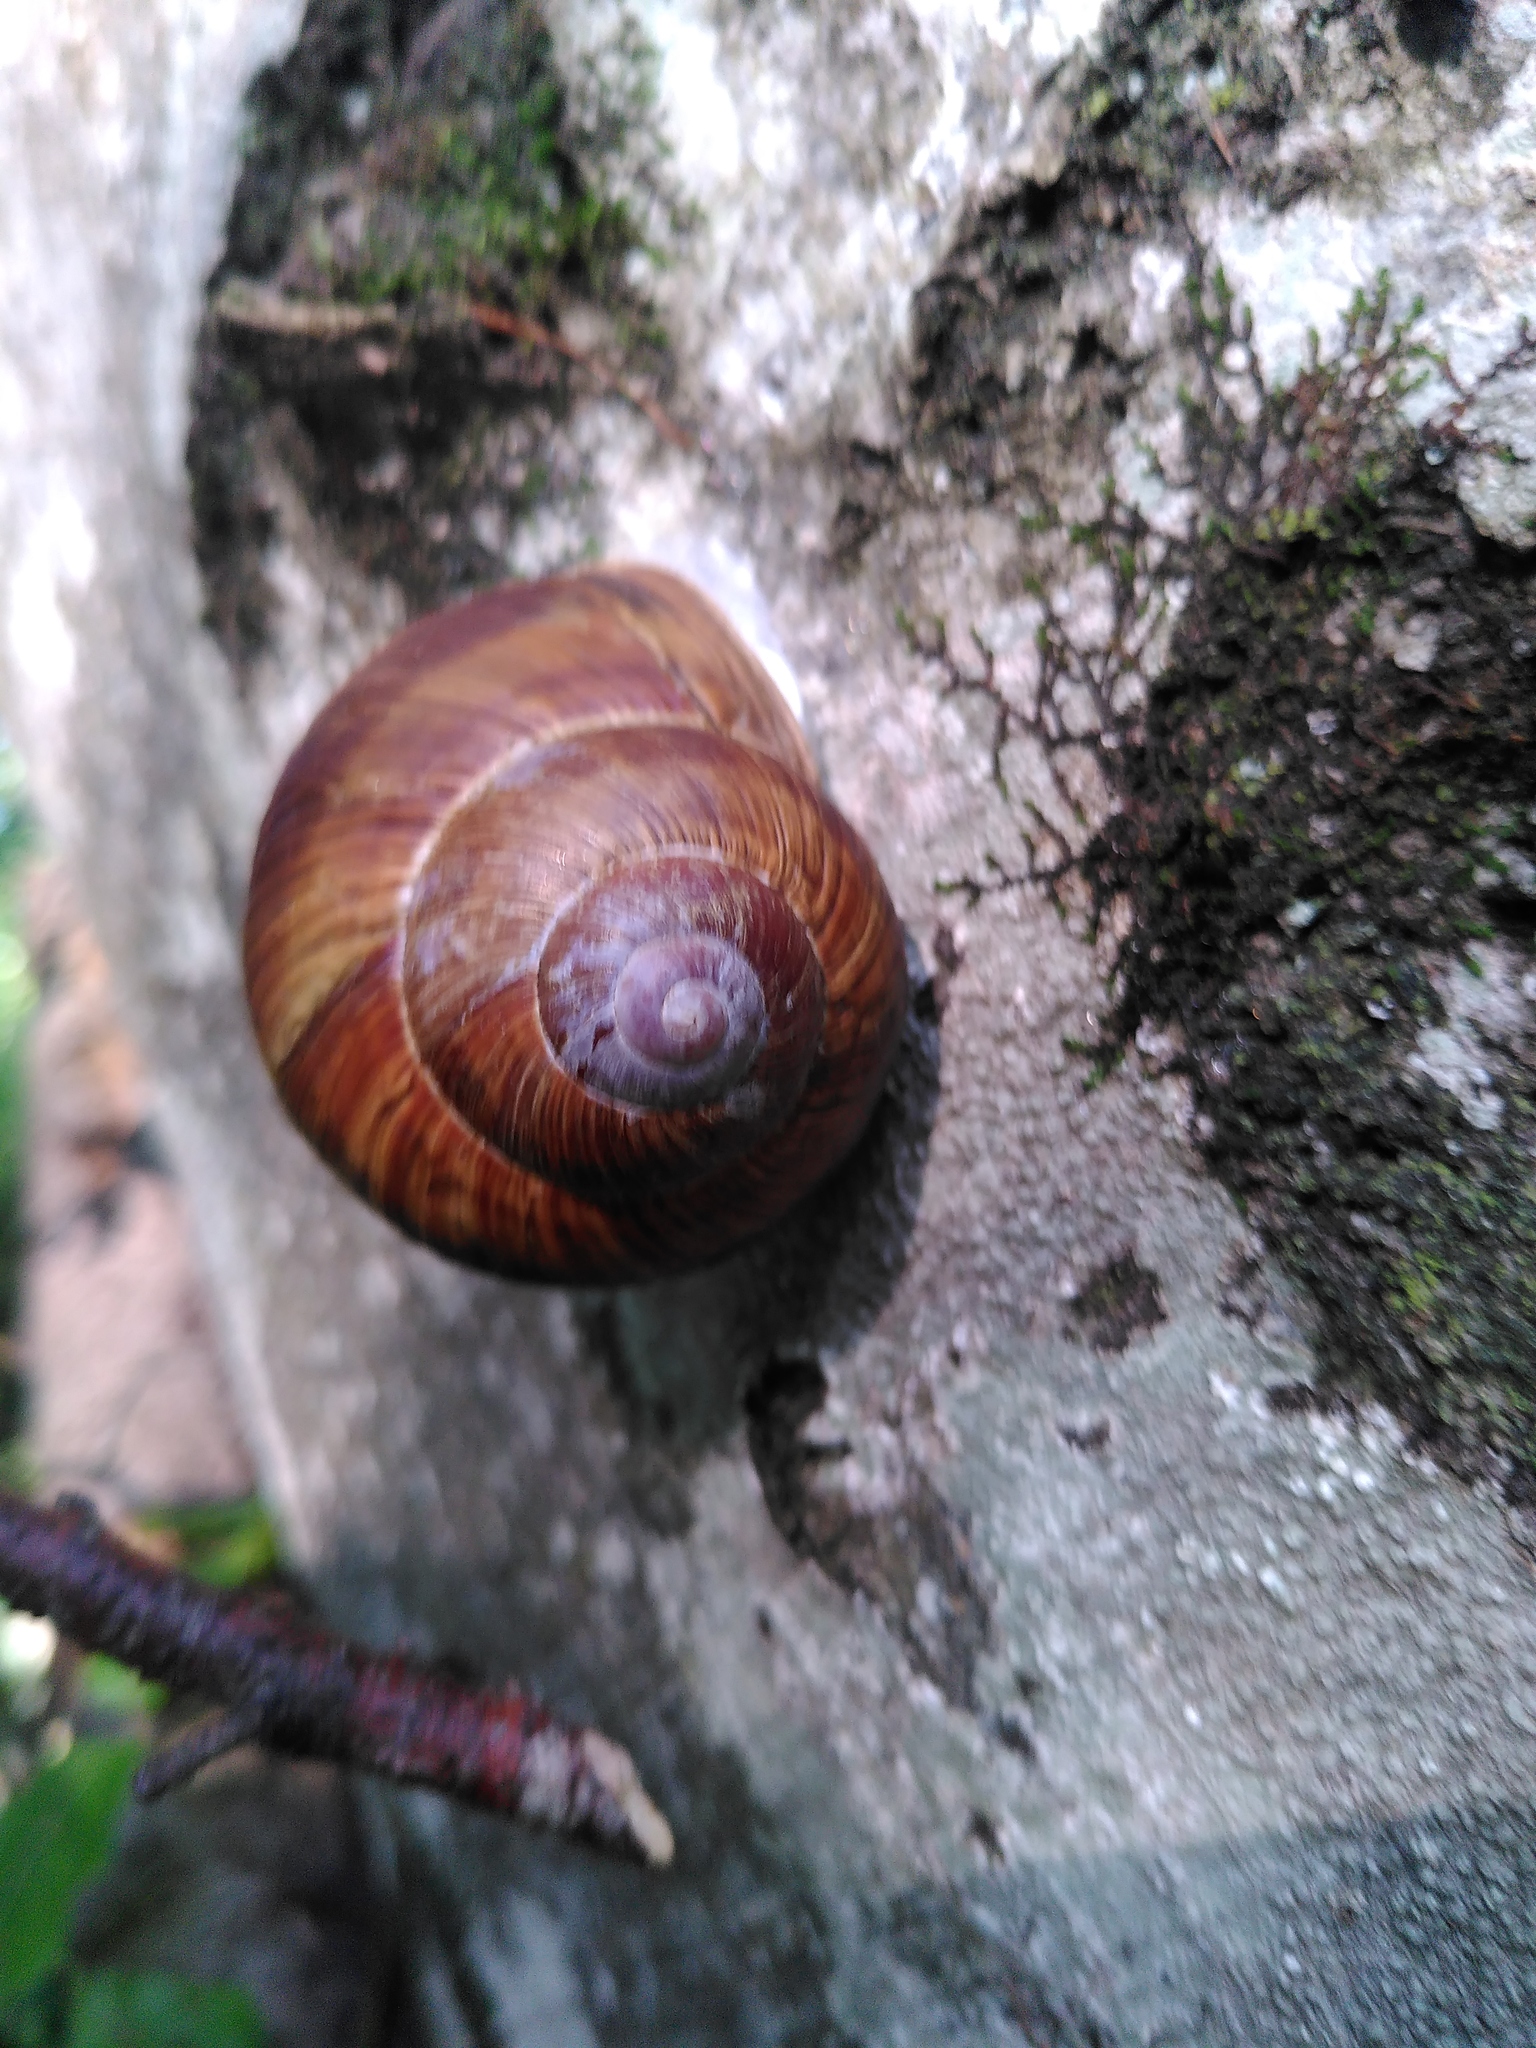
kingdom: Animalia
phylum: Mollusca
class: Gastropoda
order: Stylommatophora
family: Helicidae
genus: Helix
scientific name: Helix pomatia
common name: Roman snail
